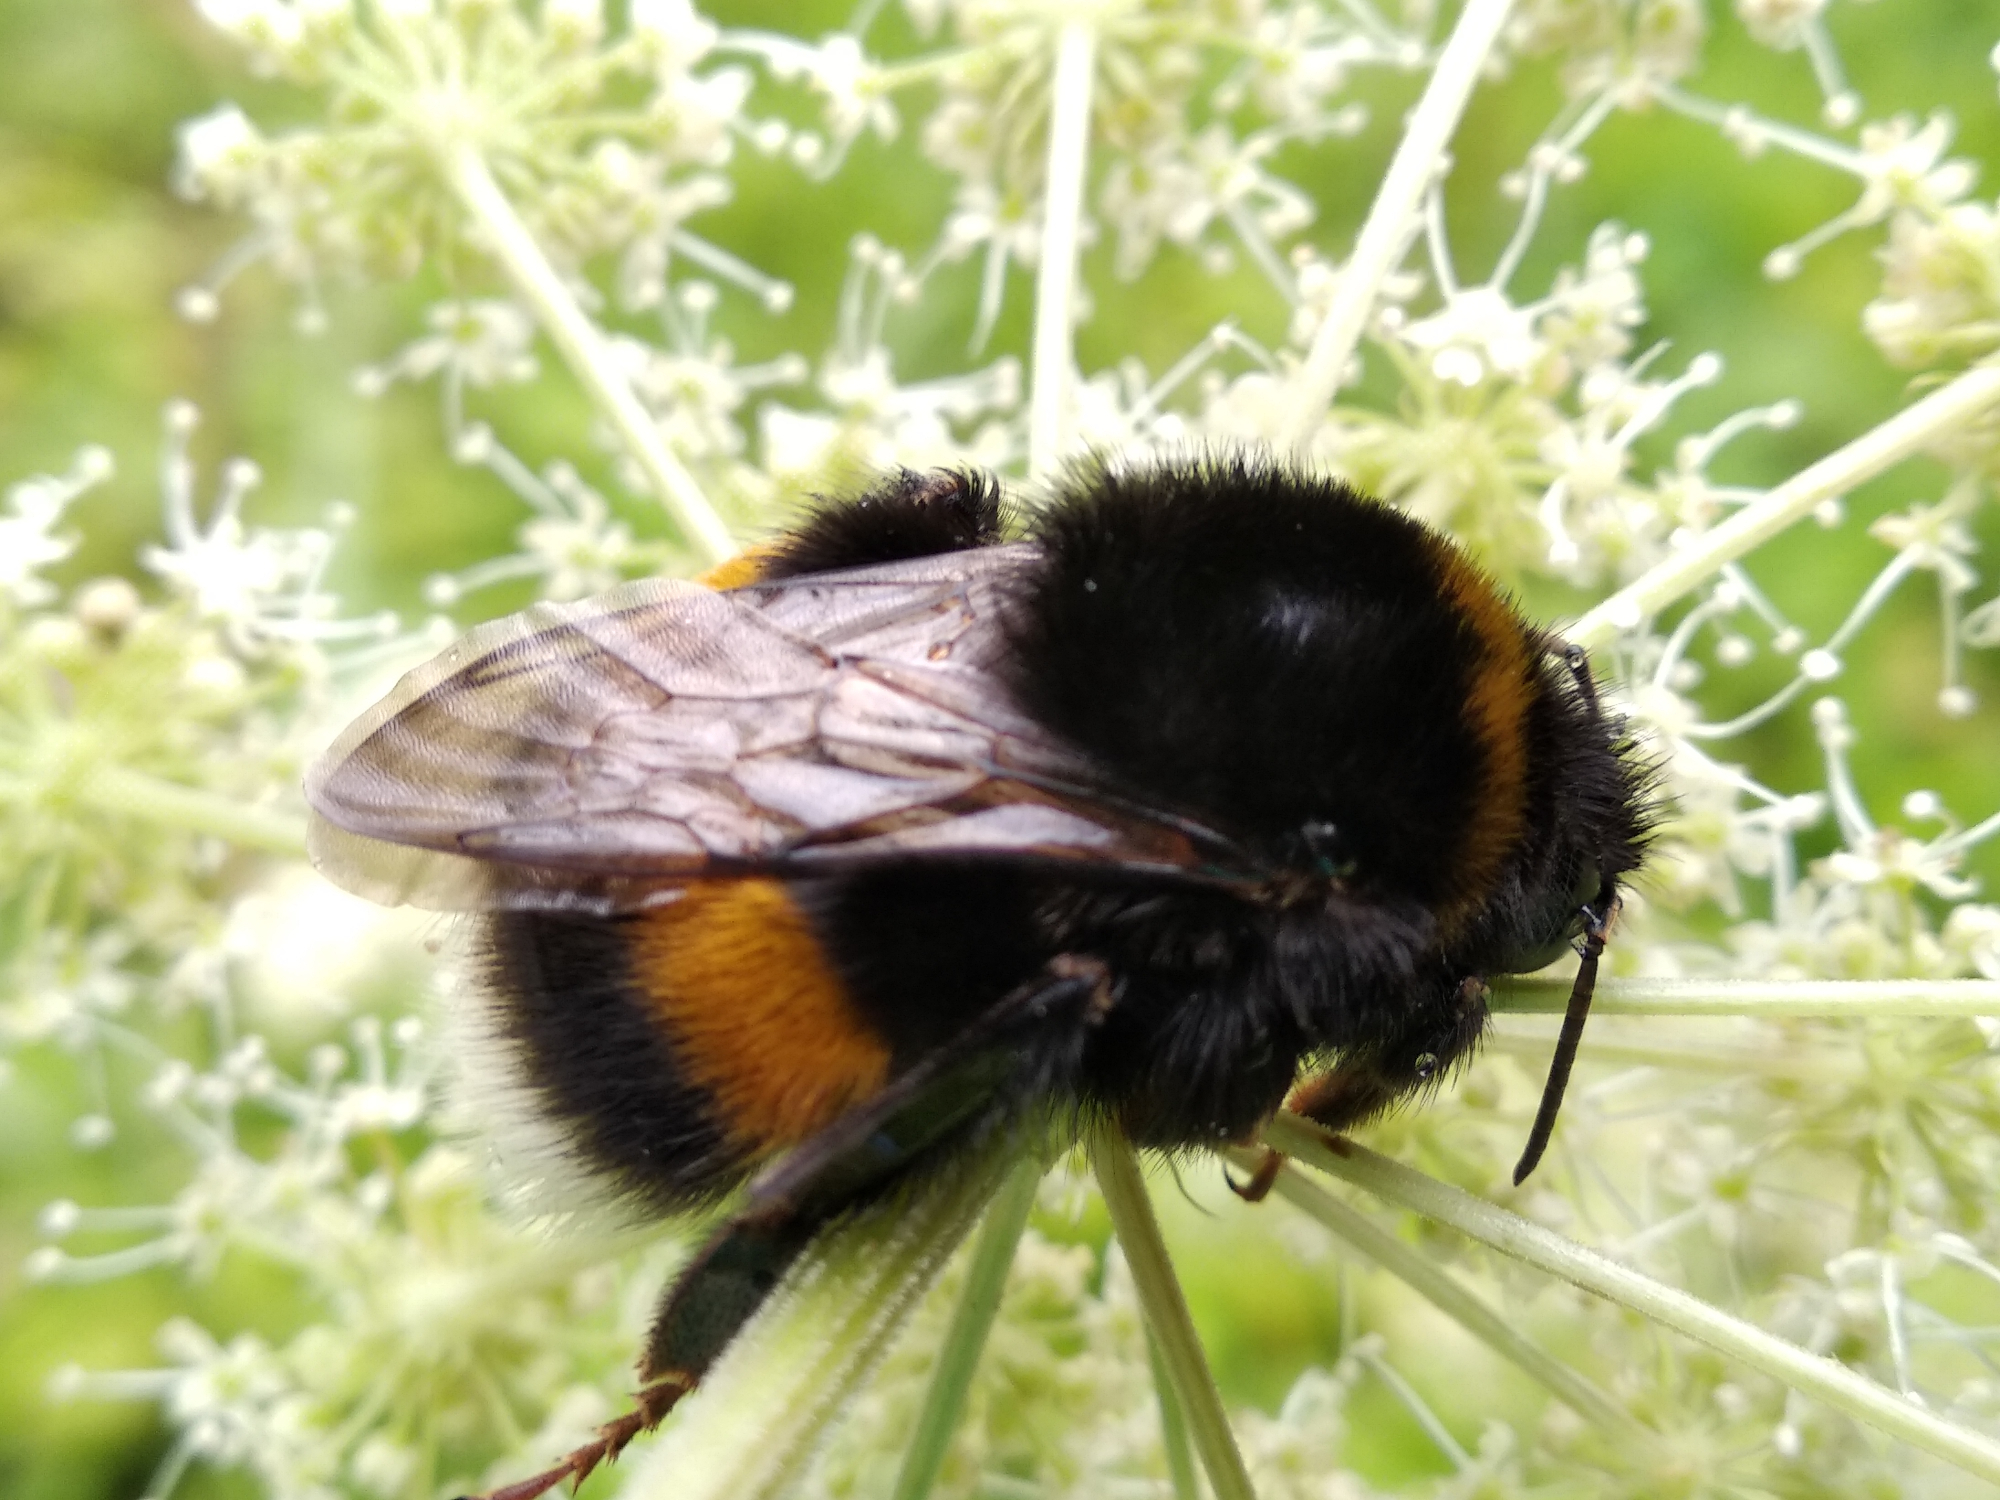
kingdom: Animalia
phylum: Arthropoda
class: Insecta
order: Hymenoptera
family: Apidae
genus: Bombus
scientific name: Bombus terrestris
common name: Buff-tailed bumblebee
